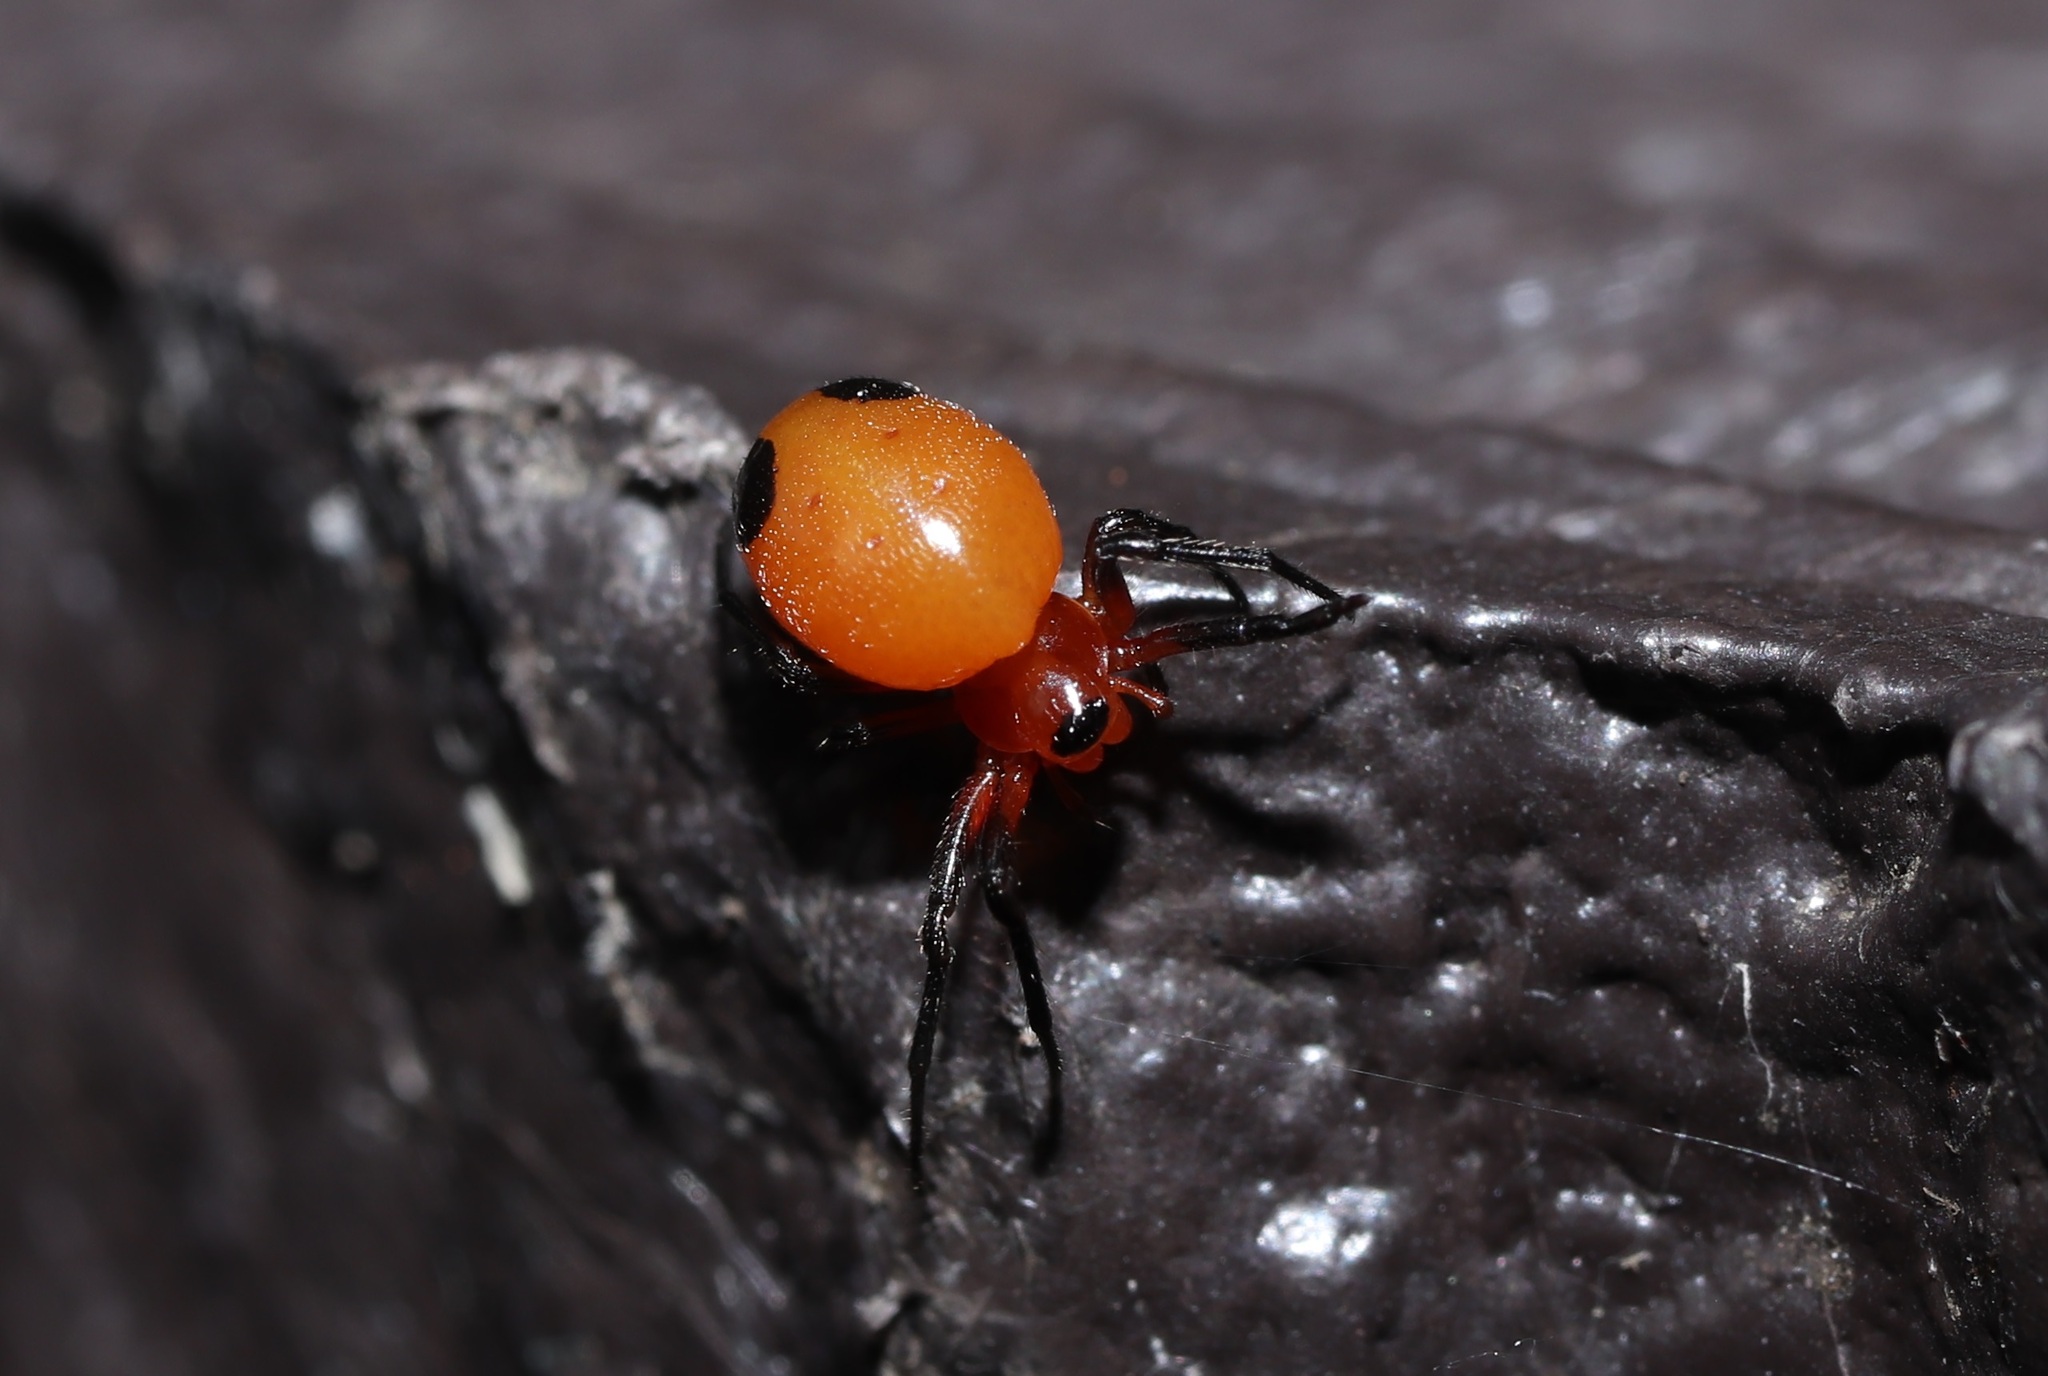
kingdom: Animalia
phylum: Arthropoda
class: Arachnida
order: Araneae
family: Araneidae
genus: Hypsosinga
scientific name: Hypsosinga sanguinea
